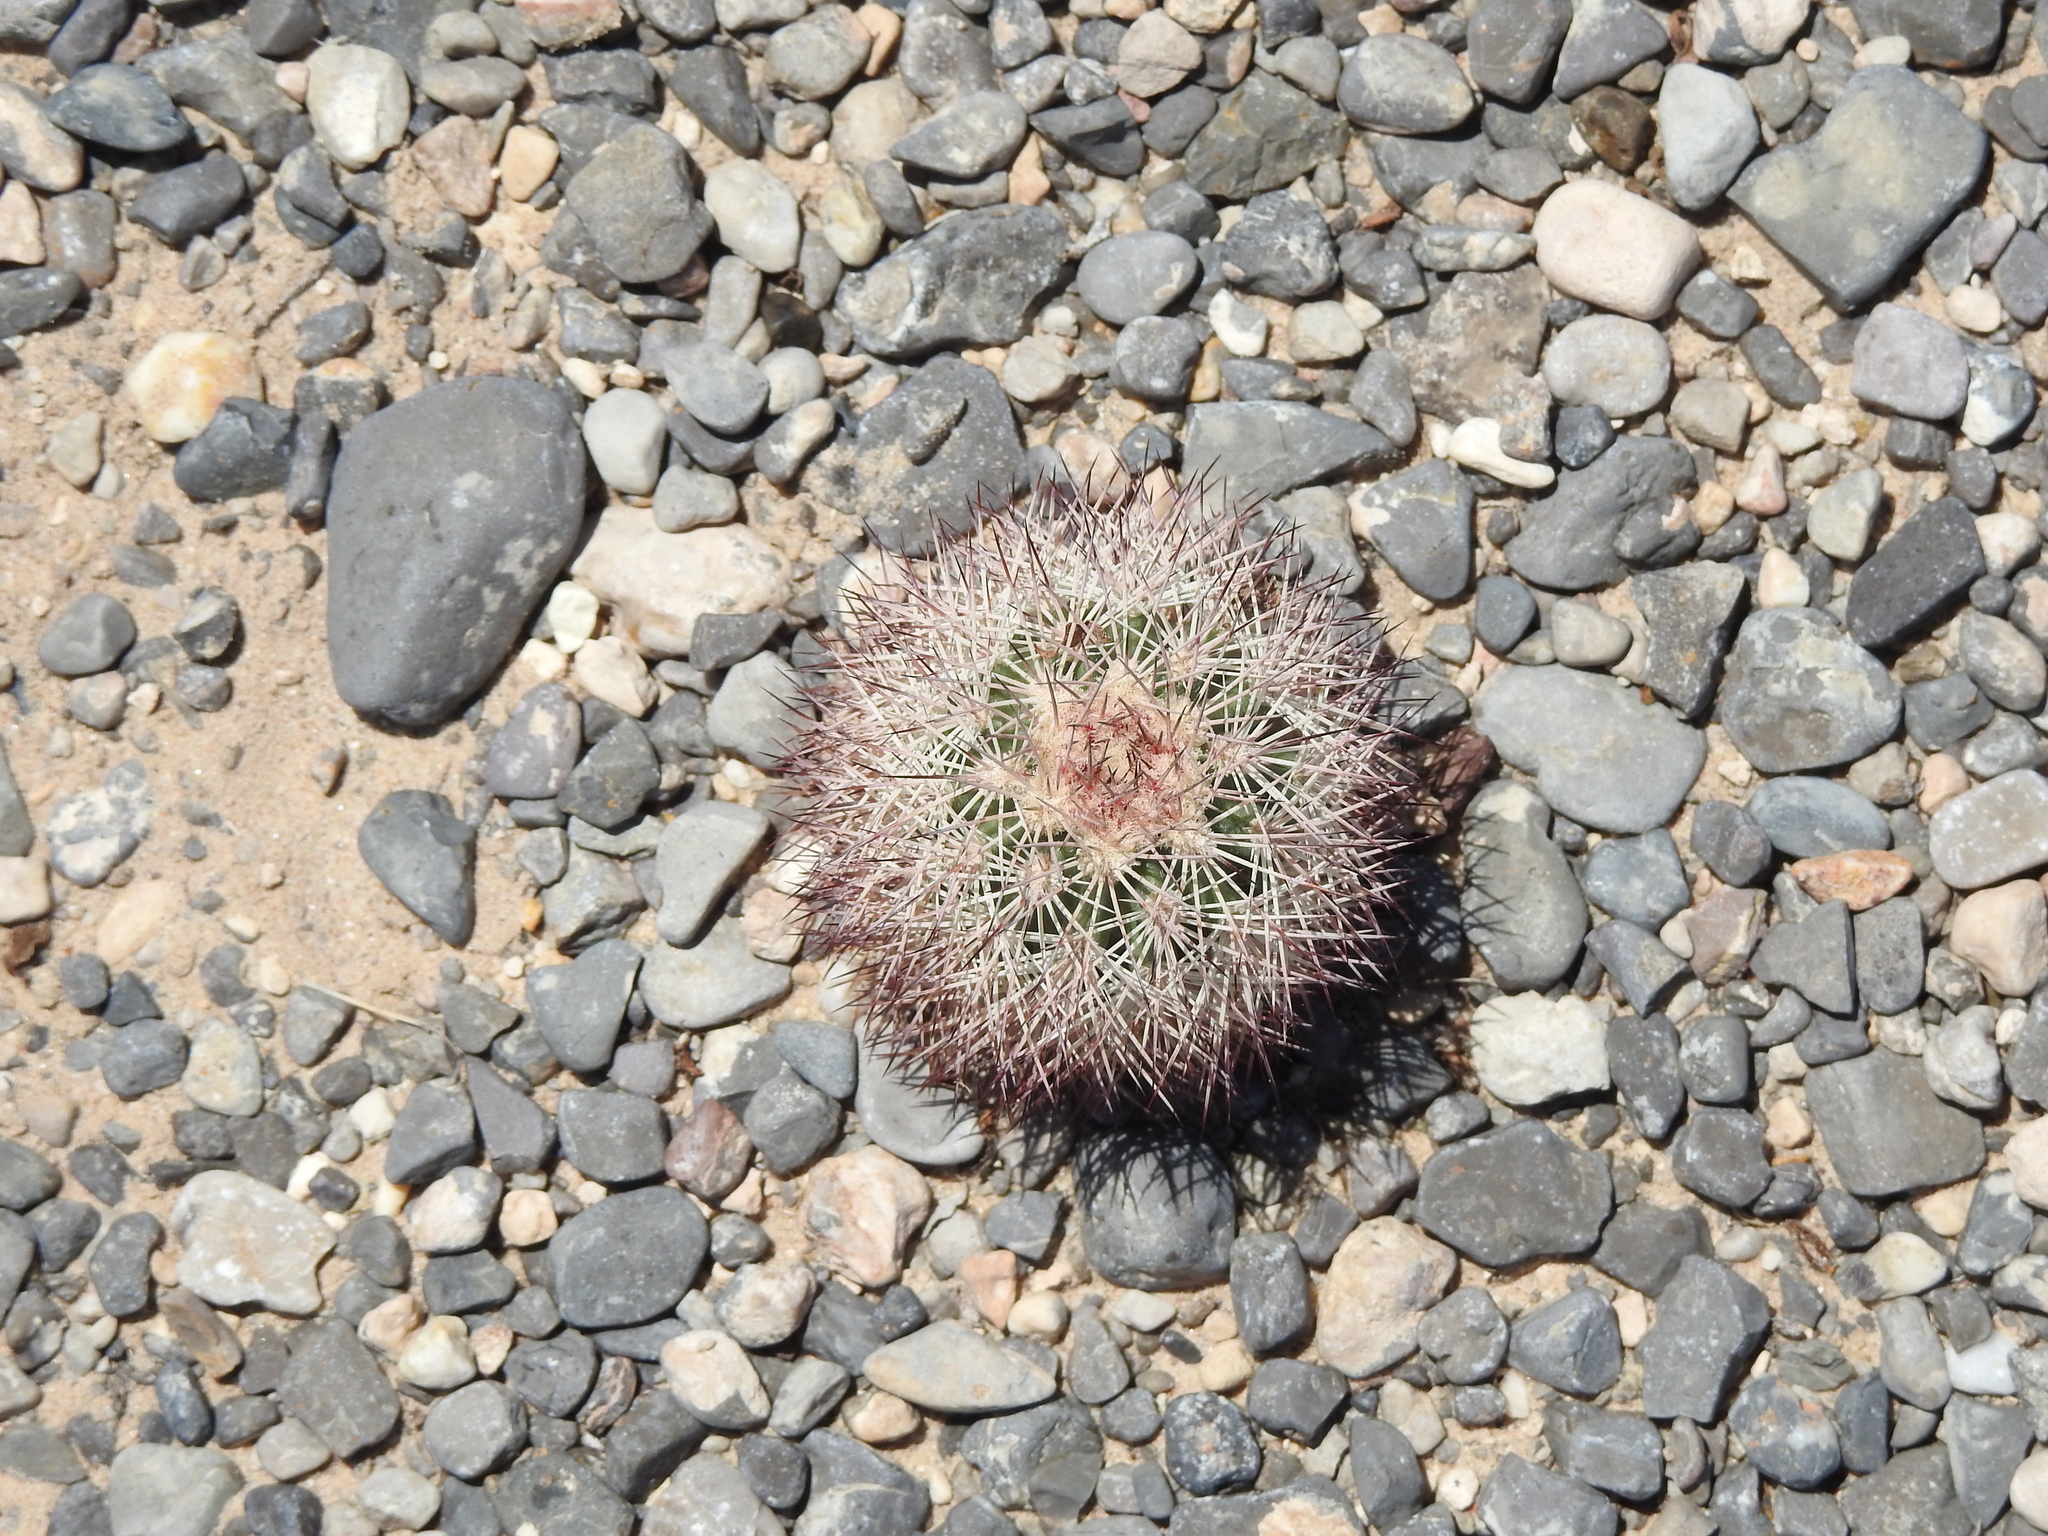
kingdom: Plantae
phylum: Tracheophyta
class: Magnoliopsida
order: Caryophyllales
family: Cactaceae
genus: Echinocereus
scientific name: Echinocereus dasyacanthus
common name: Spiny hedgehog cactus
